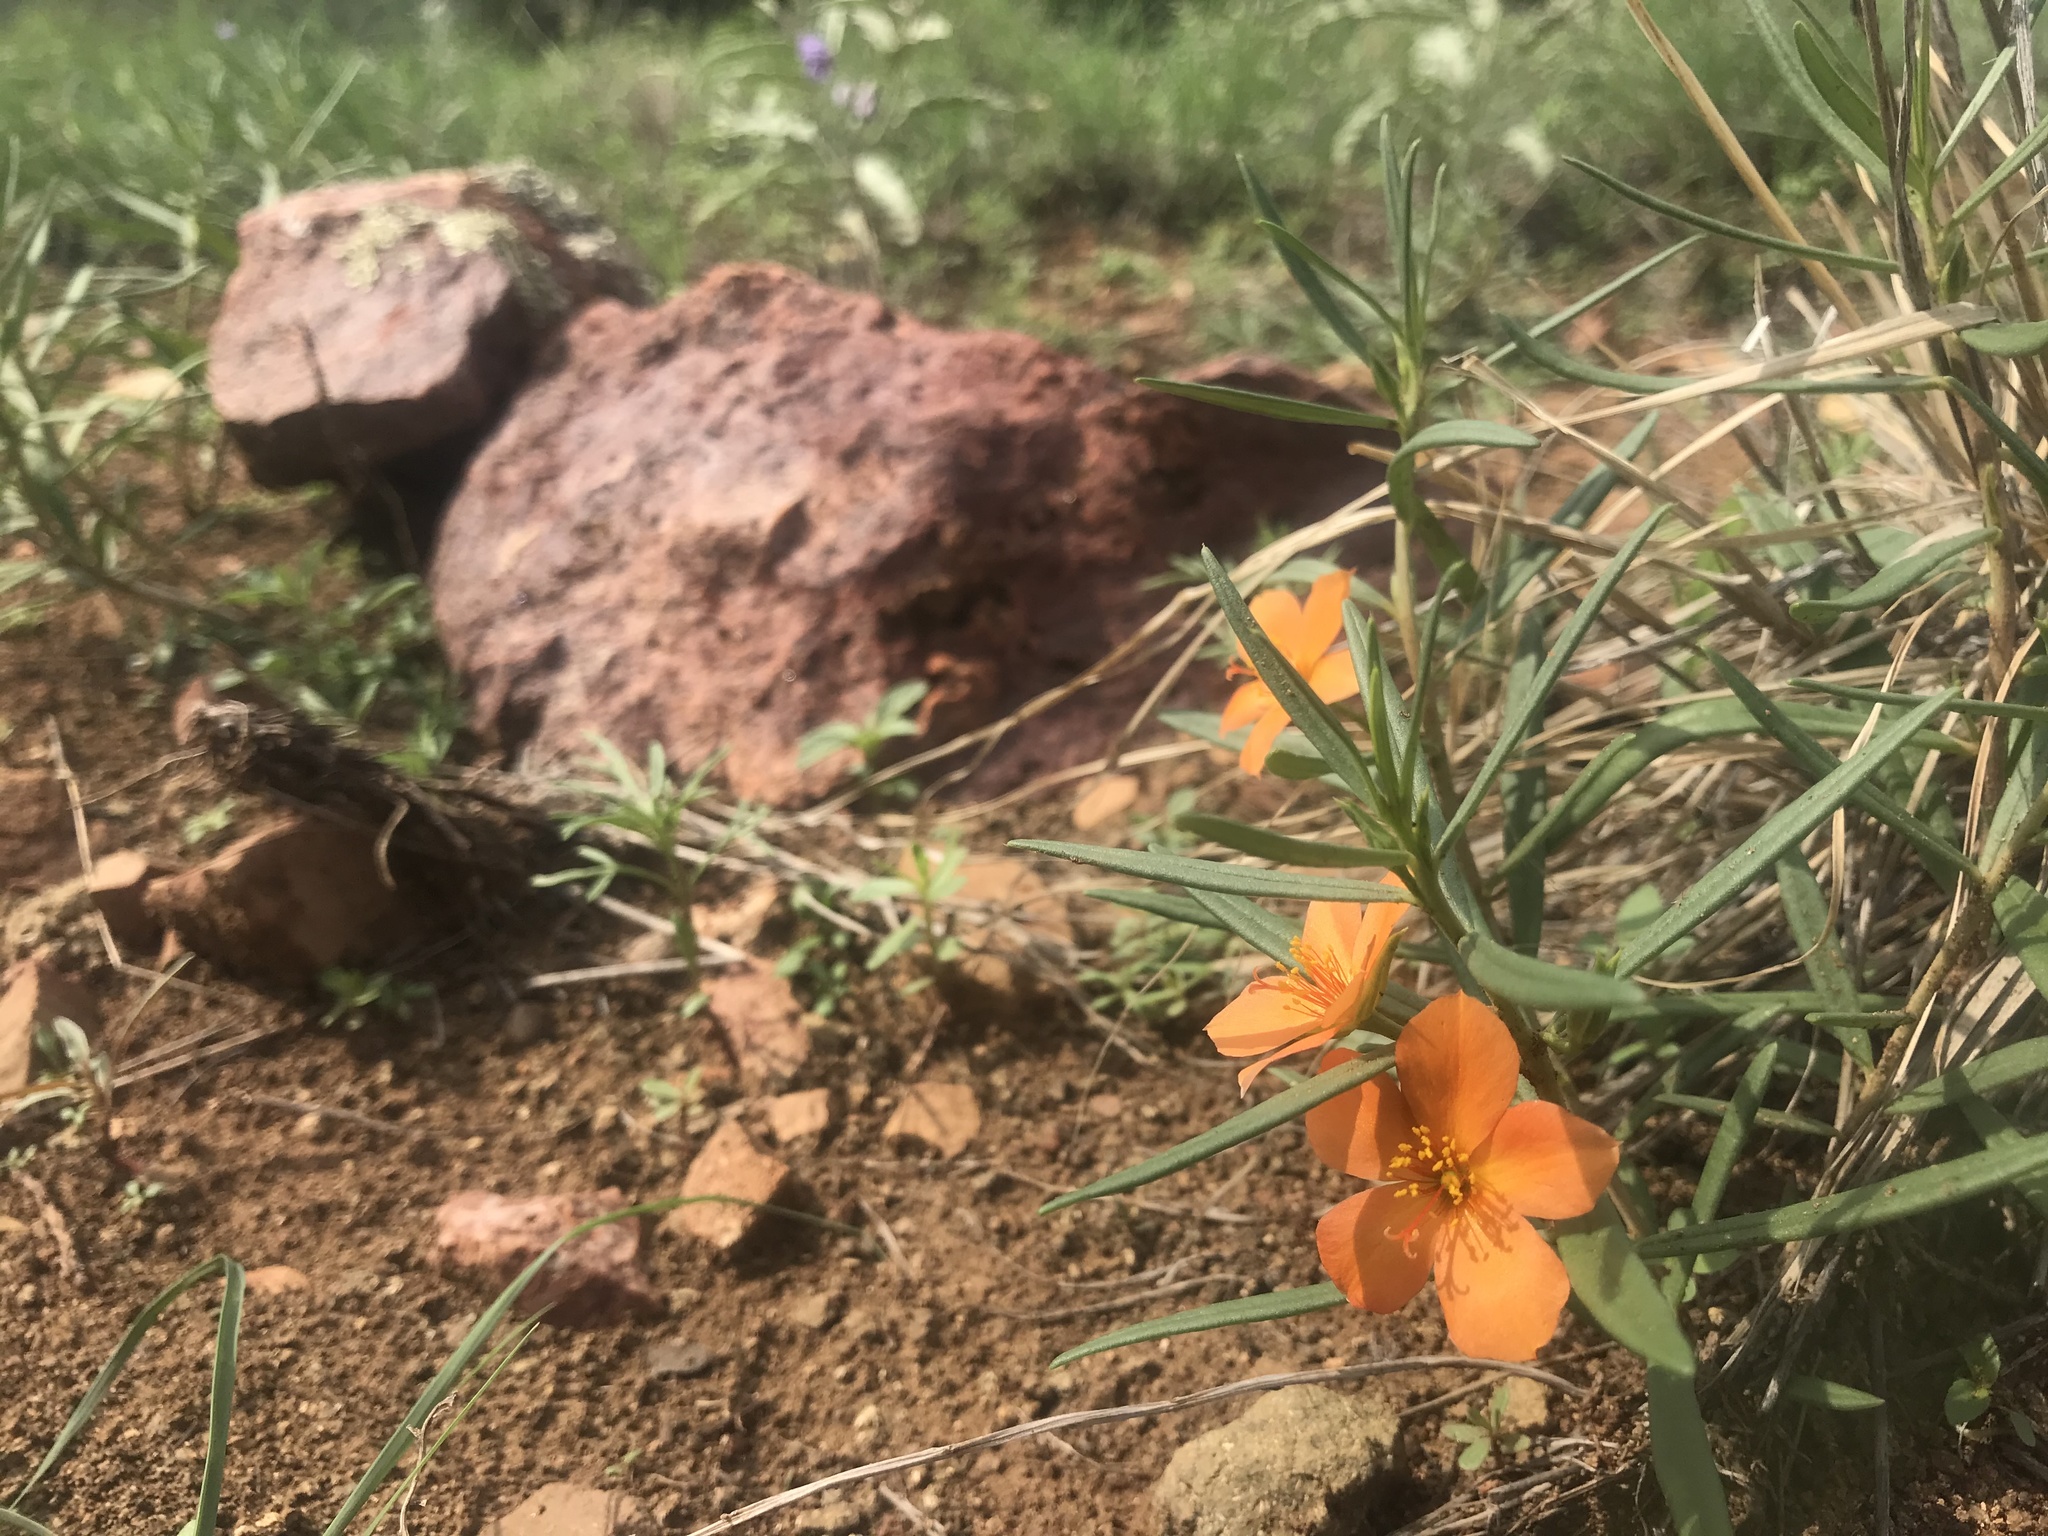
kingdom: Plantae
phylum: Tracheophyta
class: Magnoliopsida
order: Caryophyllales
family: Montiaceae
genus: Phemeranthus
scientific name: Phemeranthus aurantiacus
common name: Orange fameflower
